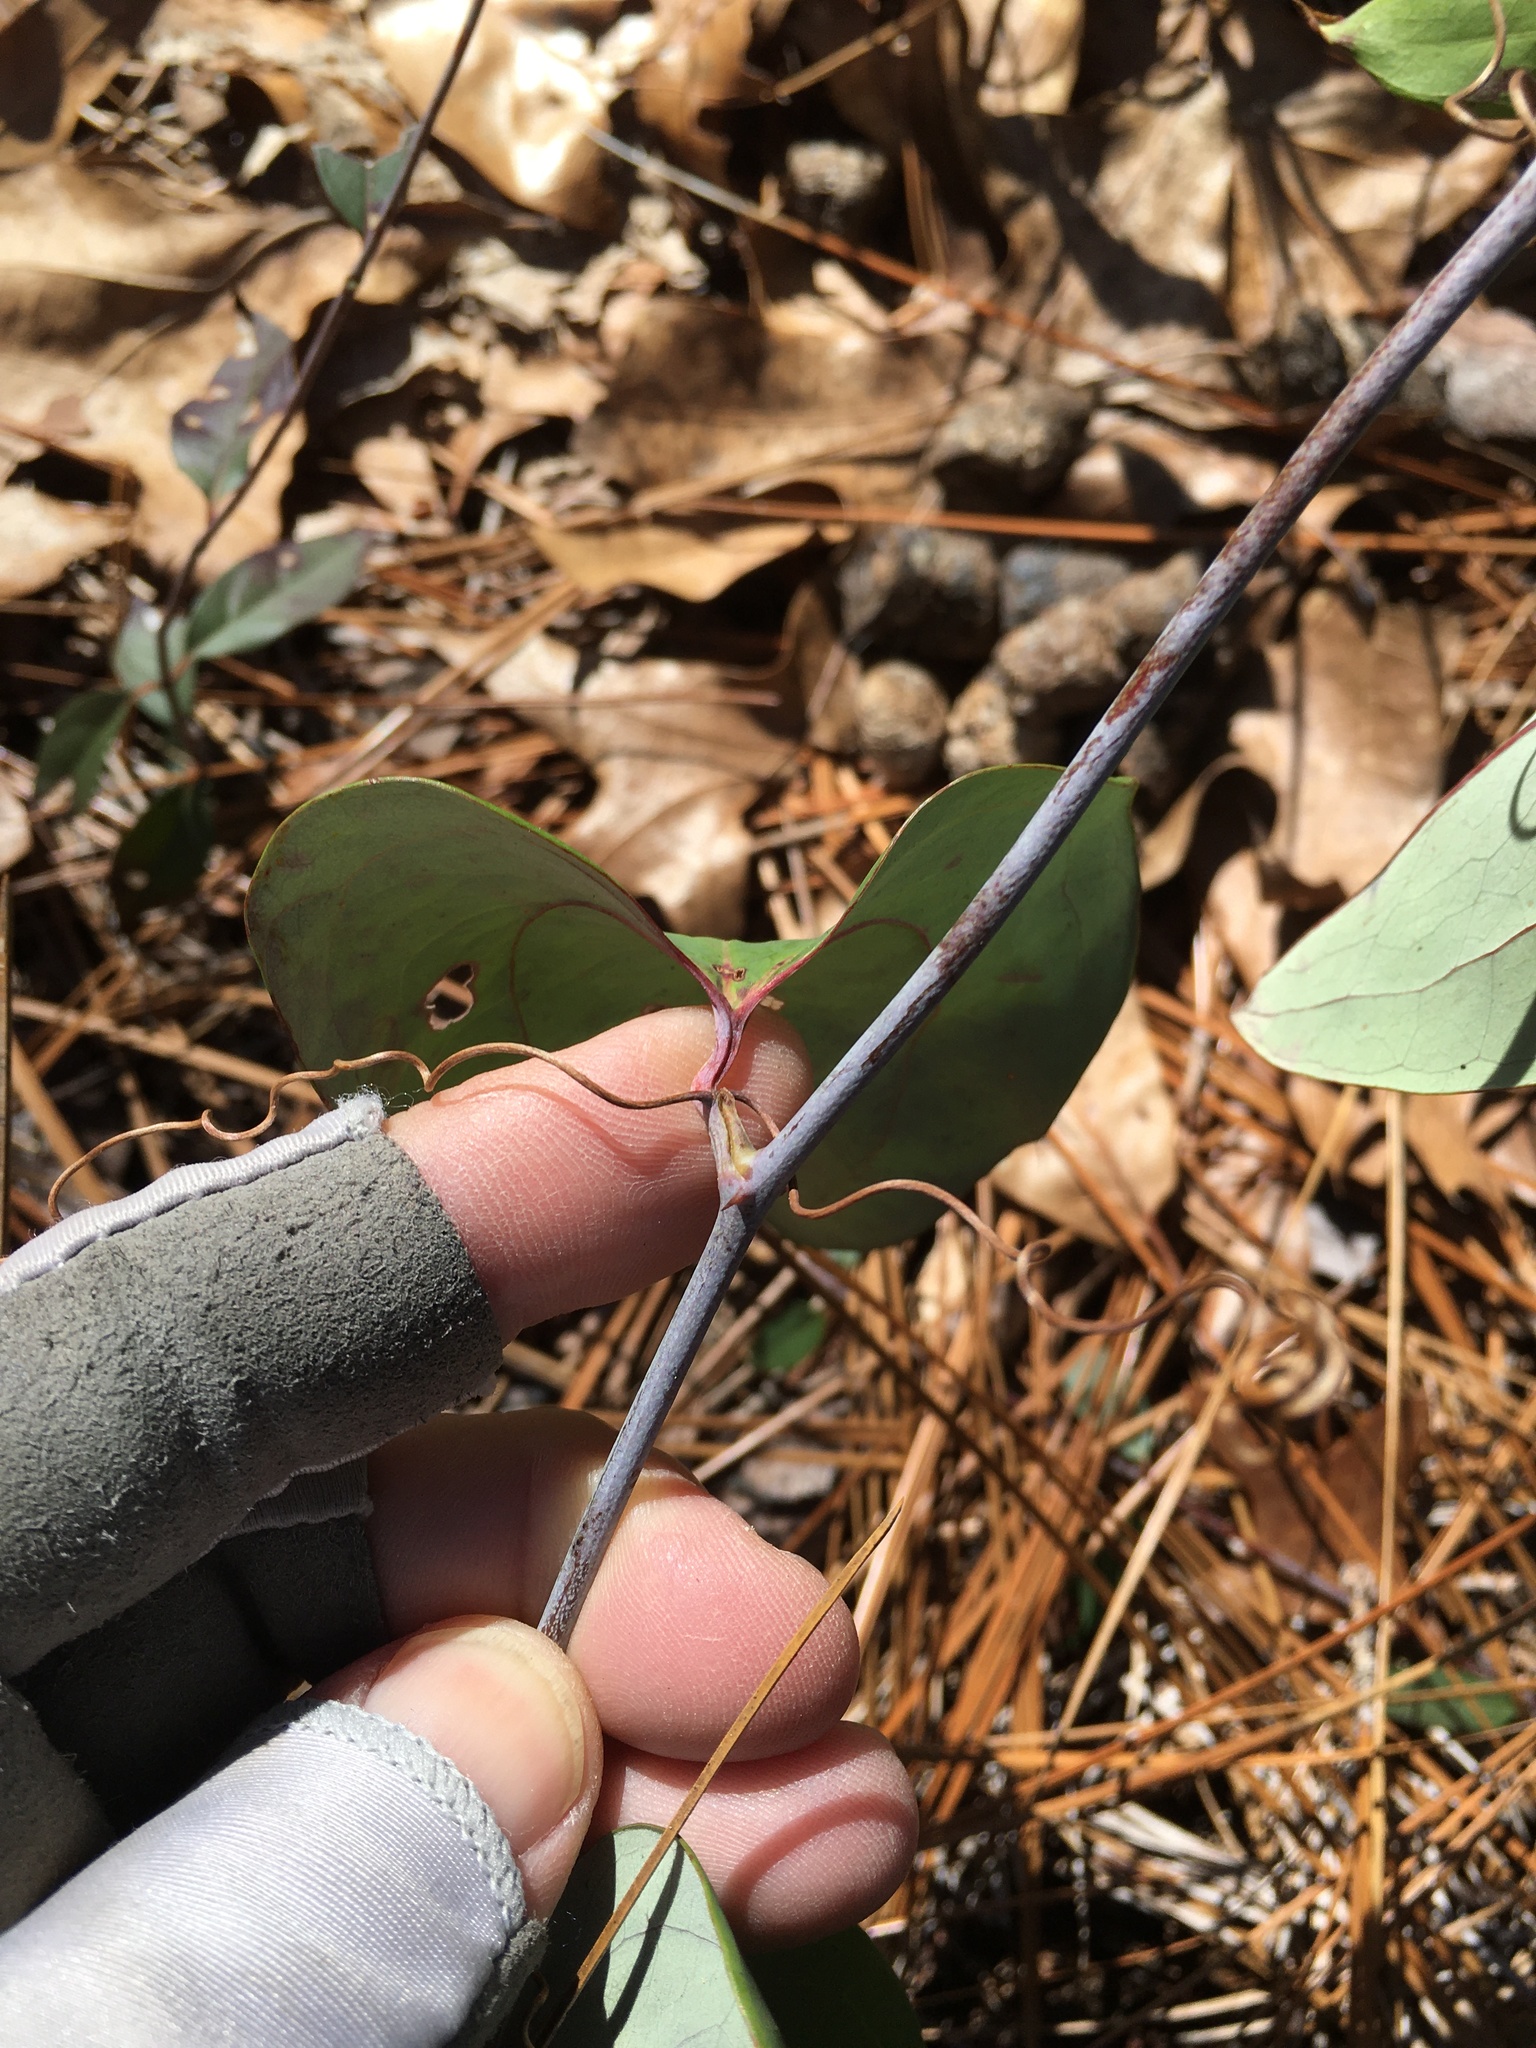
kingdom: Plantae
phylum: Tracheophyta
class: Liliopsida
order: Liliales
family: Smilacaceae
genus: Smilax
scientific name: Smilax glauca
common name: Cat greenbrier
